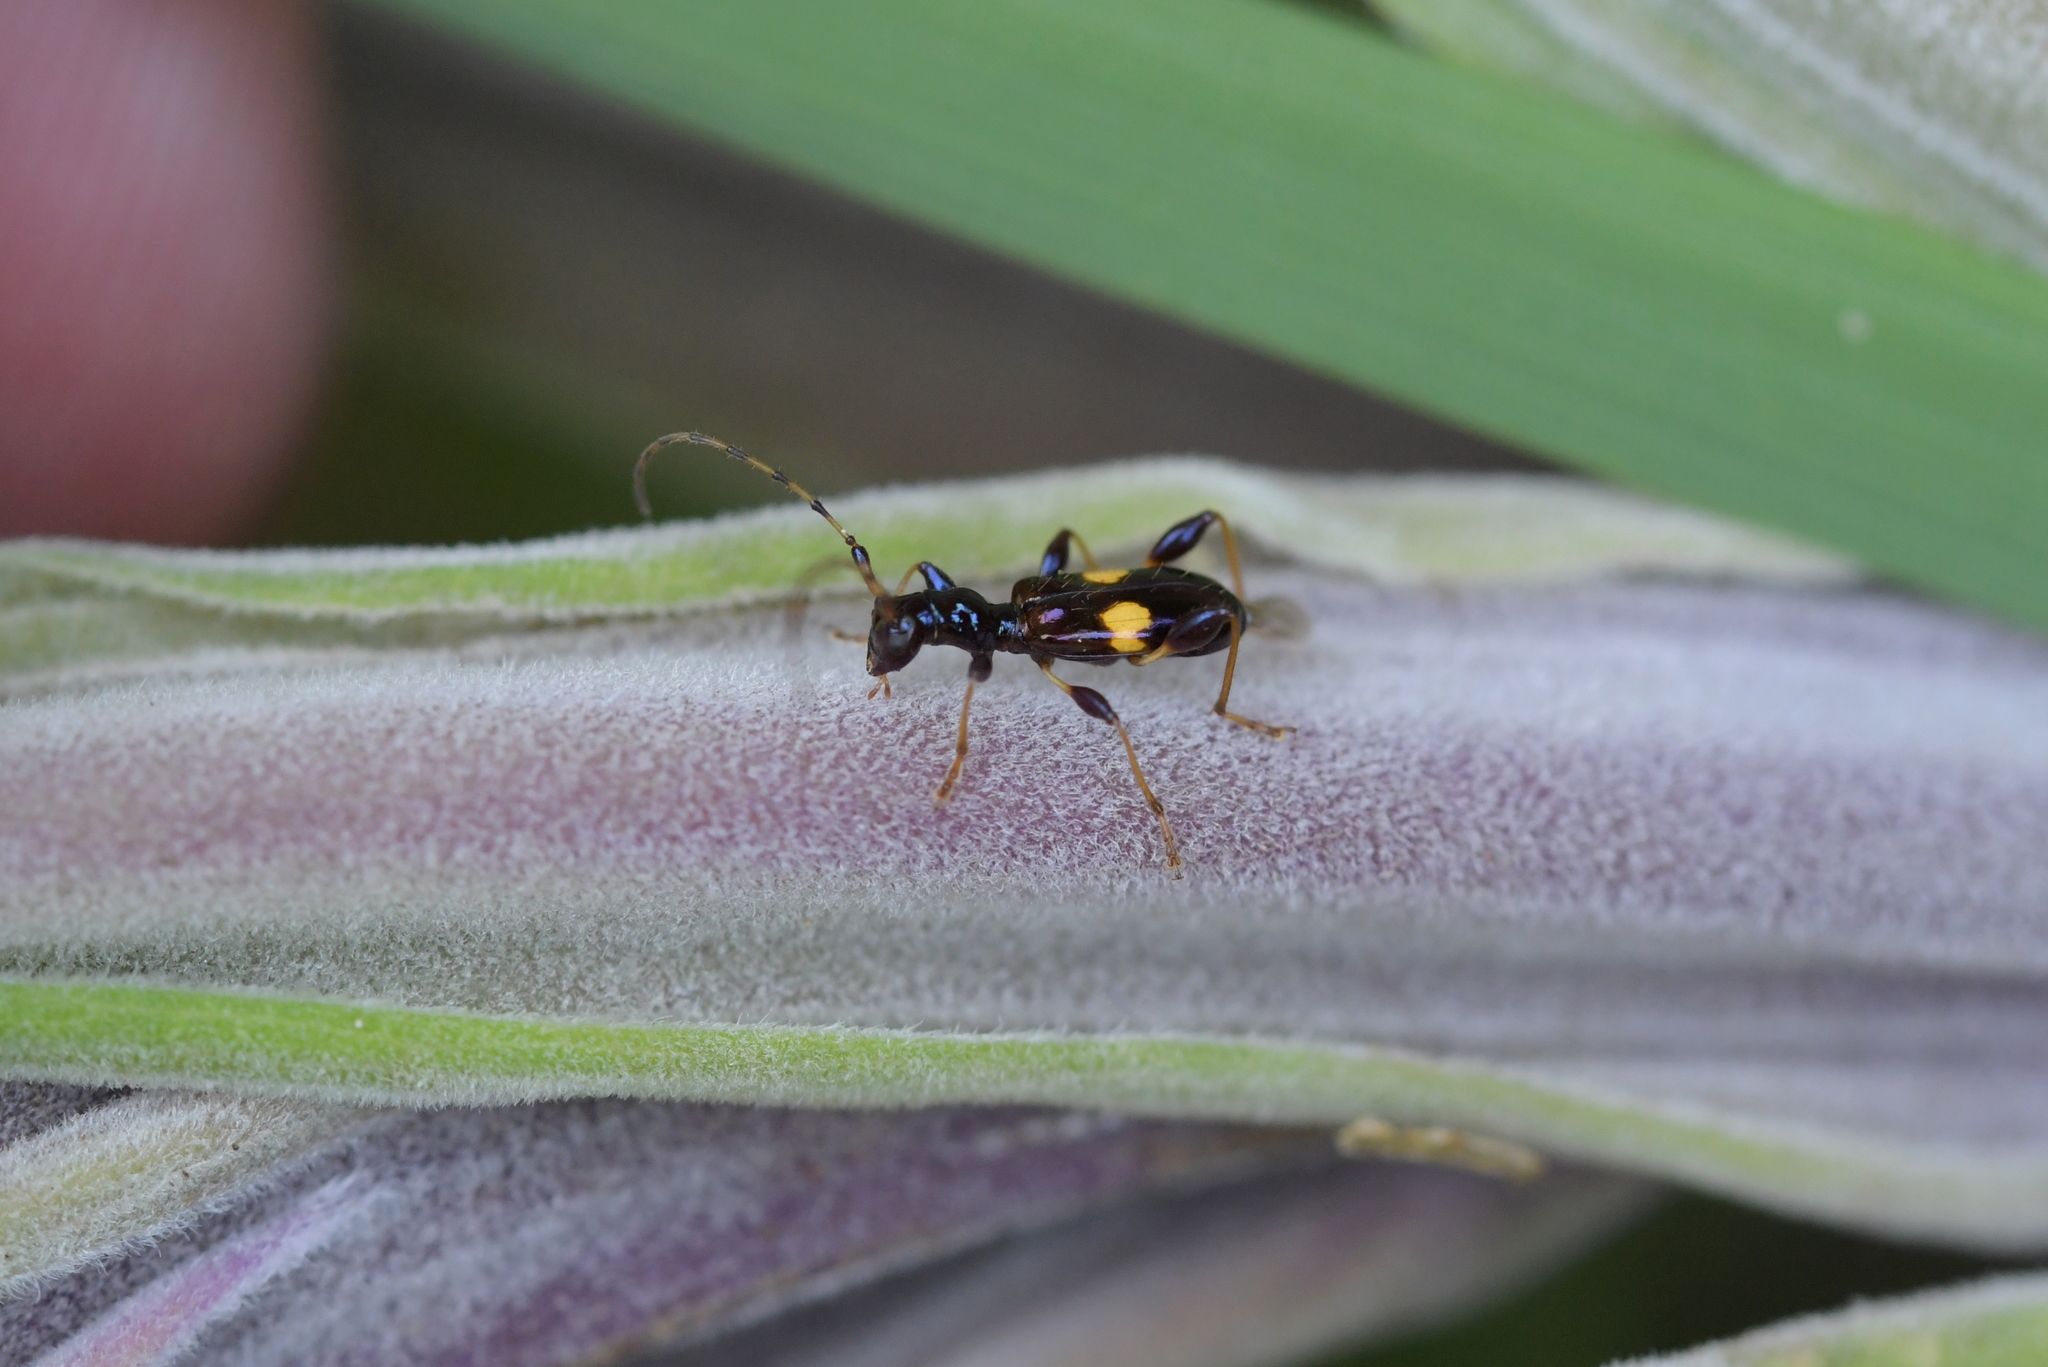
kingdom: Animalia
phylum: Arthropoda
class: Insecta
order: Coleoptera
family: Cerambycidae
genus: Zorion
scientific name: Zorion guttigerum
